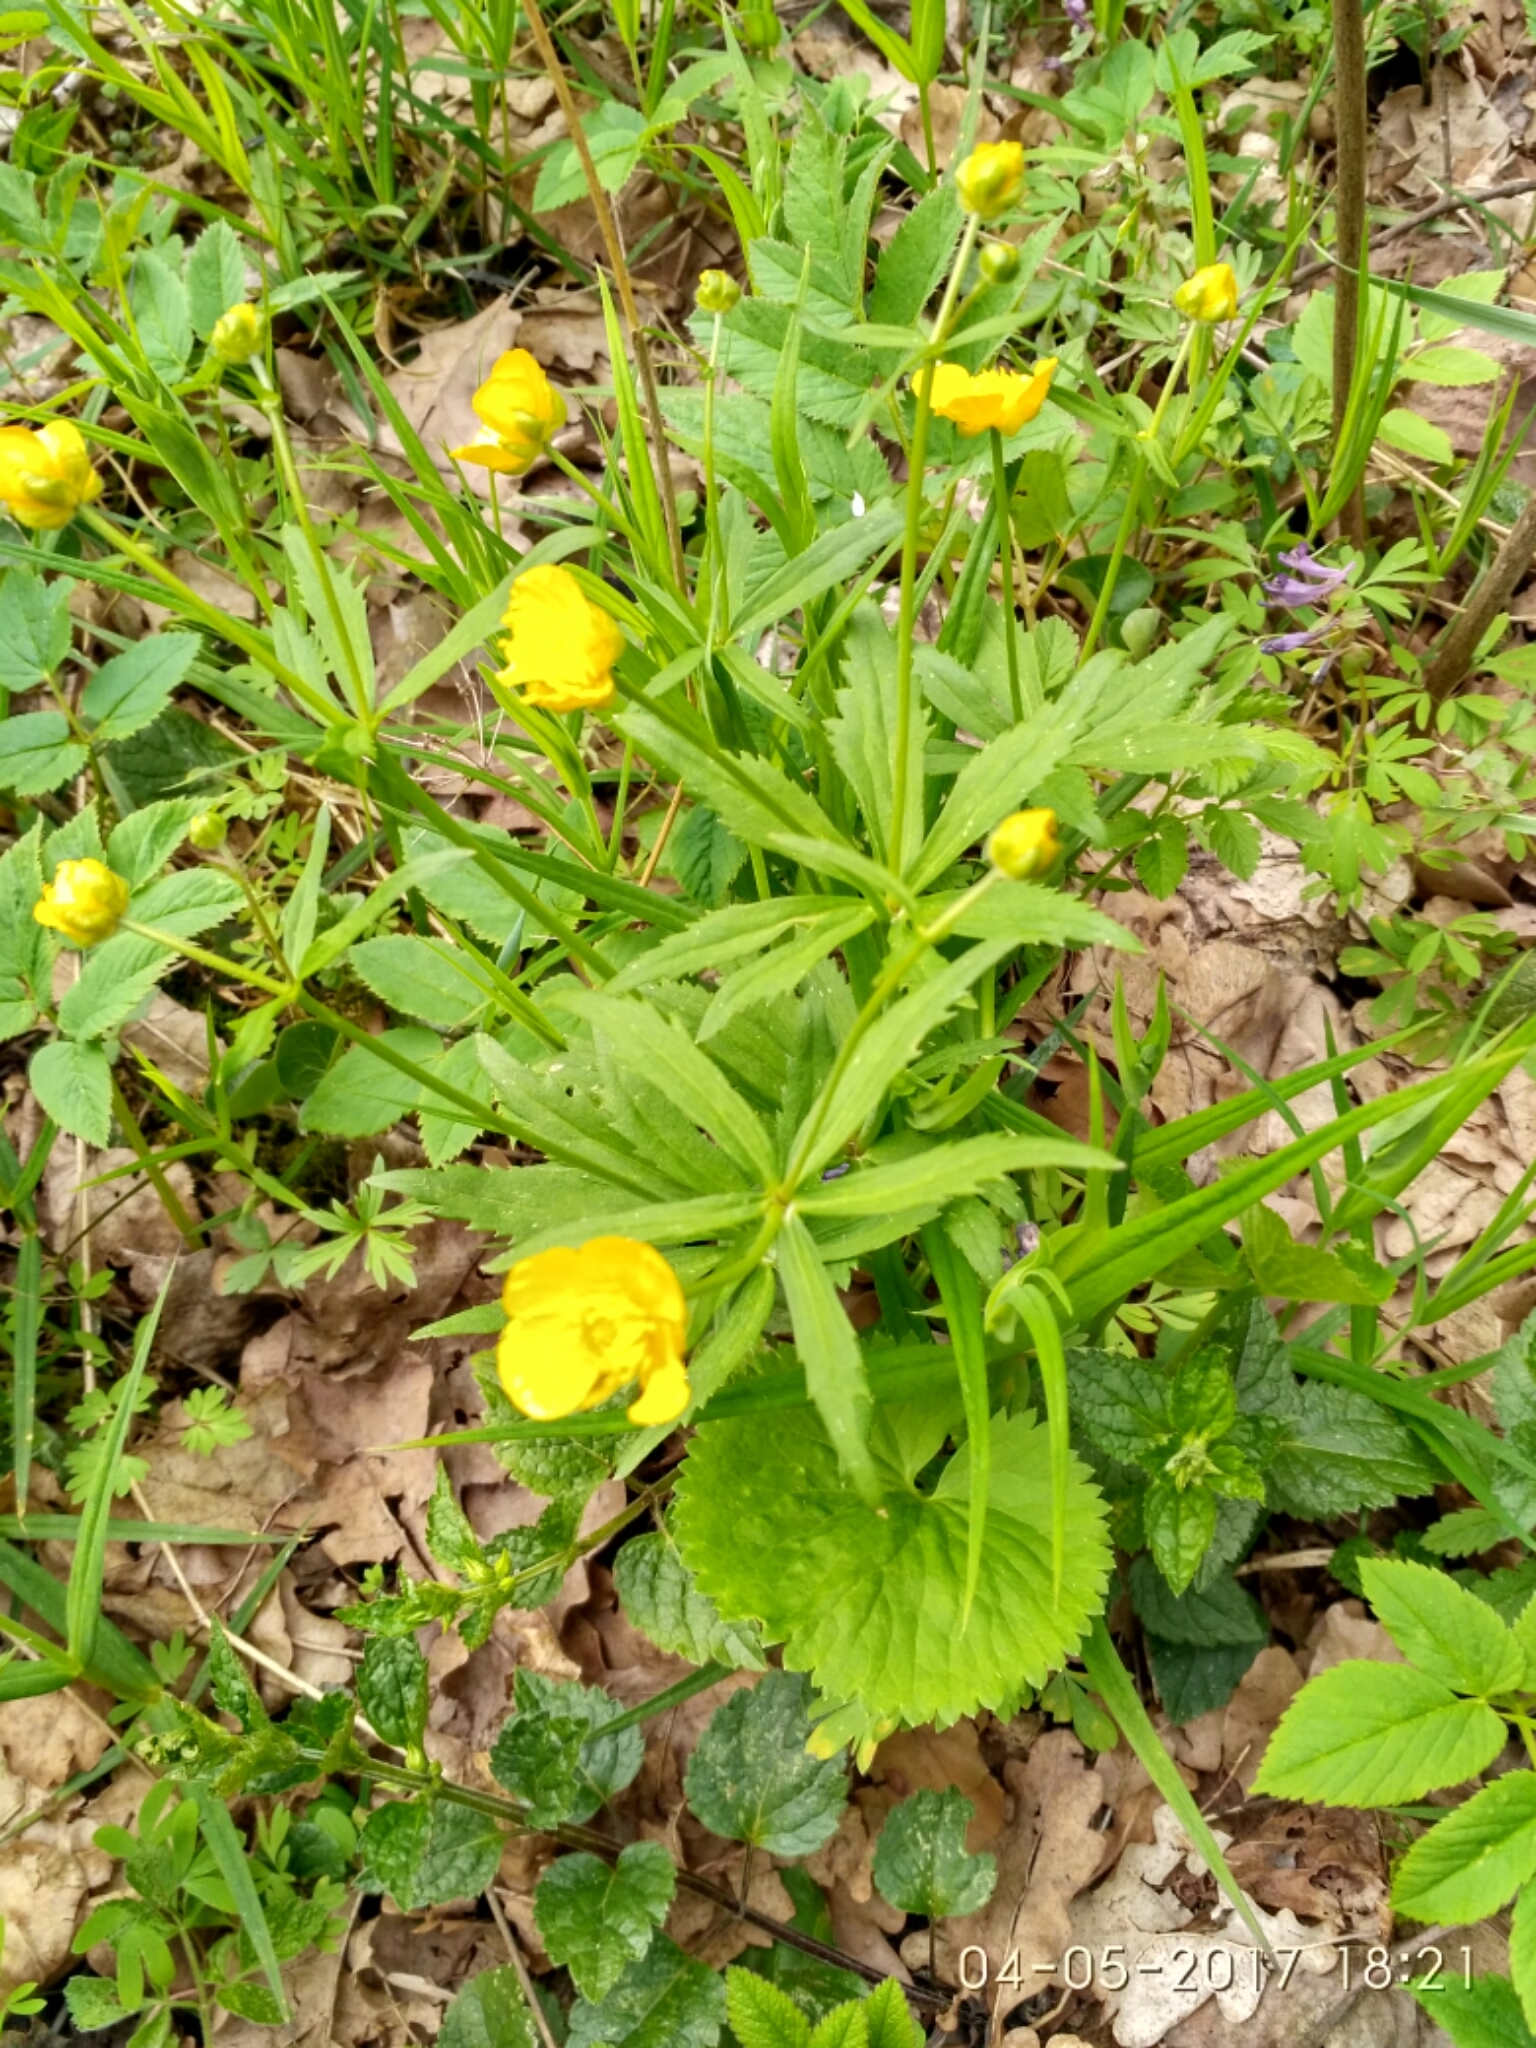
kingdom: Plantae
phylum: Tracheophyta
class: Magnoliopsida
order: Ranunculales
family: Ranunculaceae
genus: Ranunculus
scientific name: Ranunculus cassubicus
